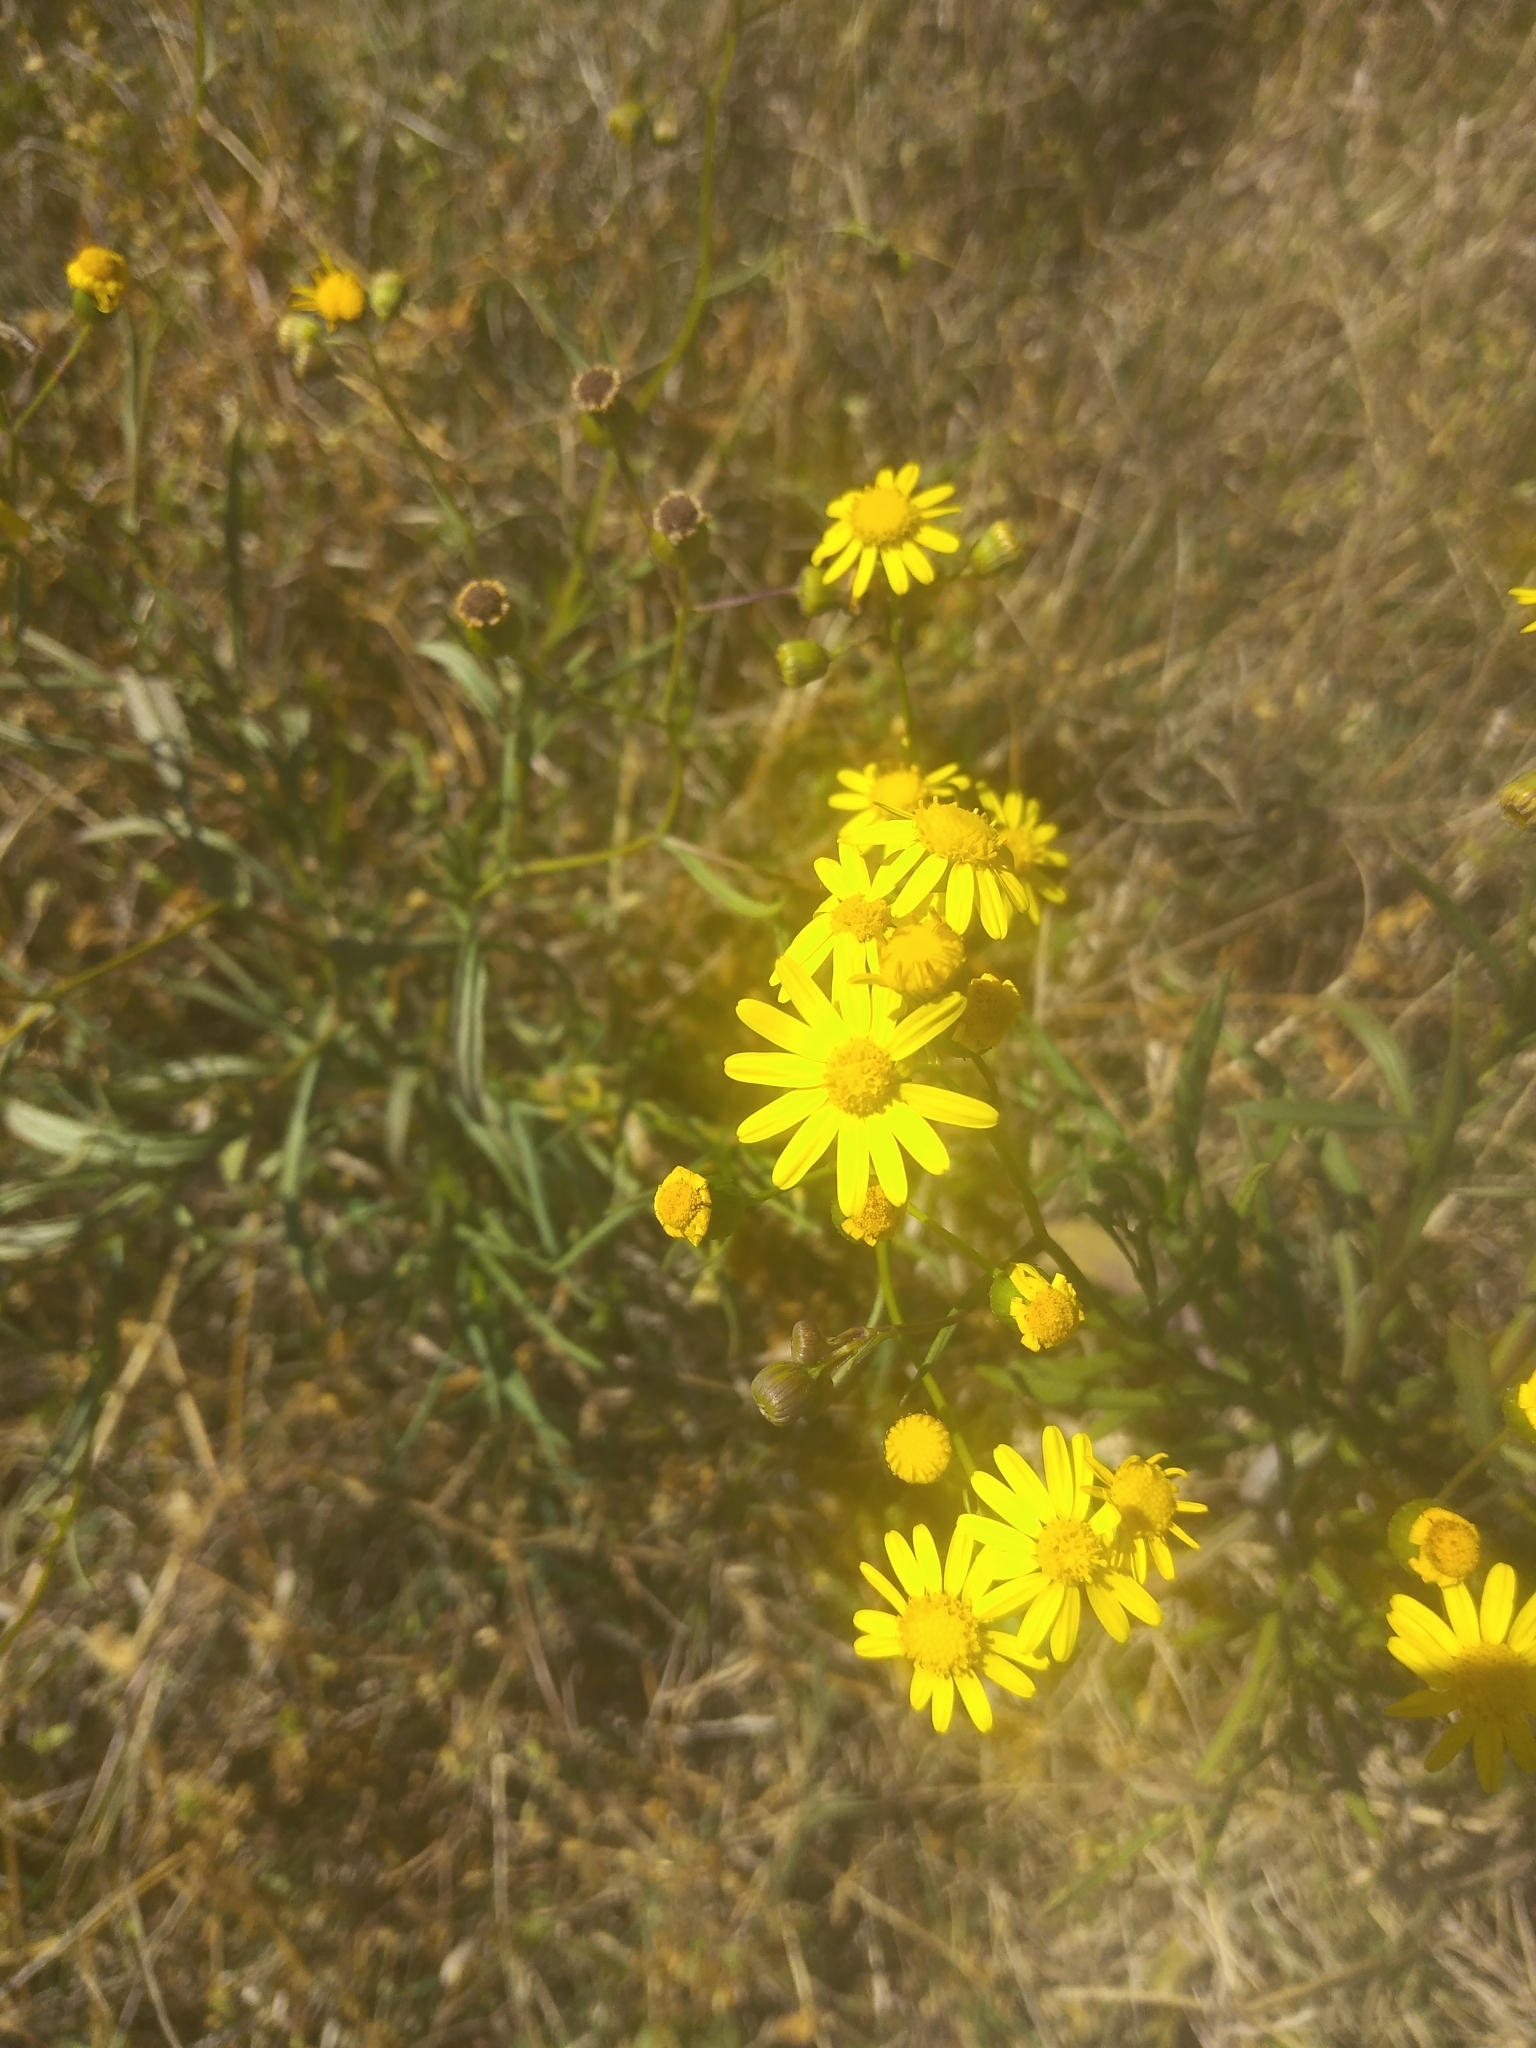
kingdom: Plantae
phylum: Tracheophyta
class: Magnoliopsida
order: Asterales
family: Asteraceae
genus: Senecio
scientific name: Senecio madagascariensis
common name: Madagascar ragwort
